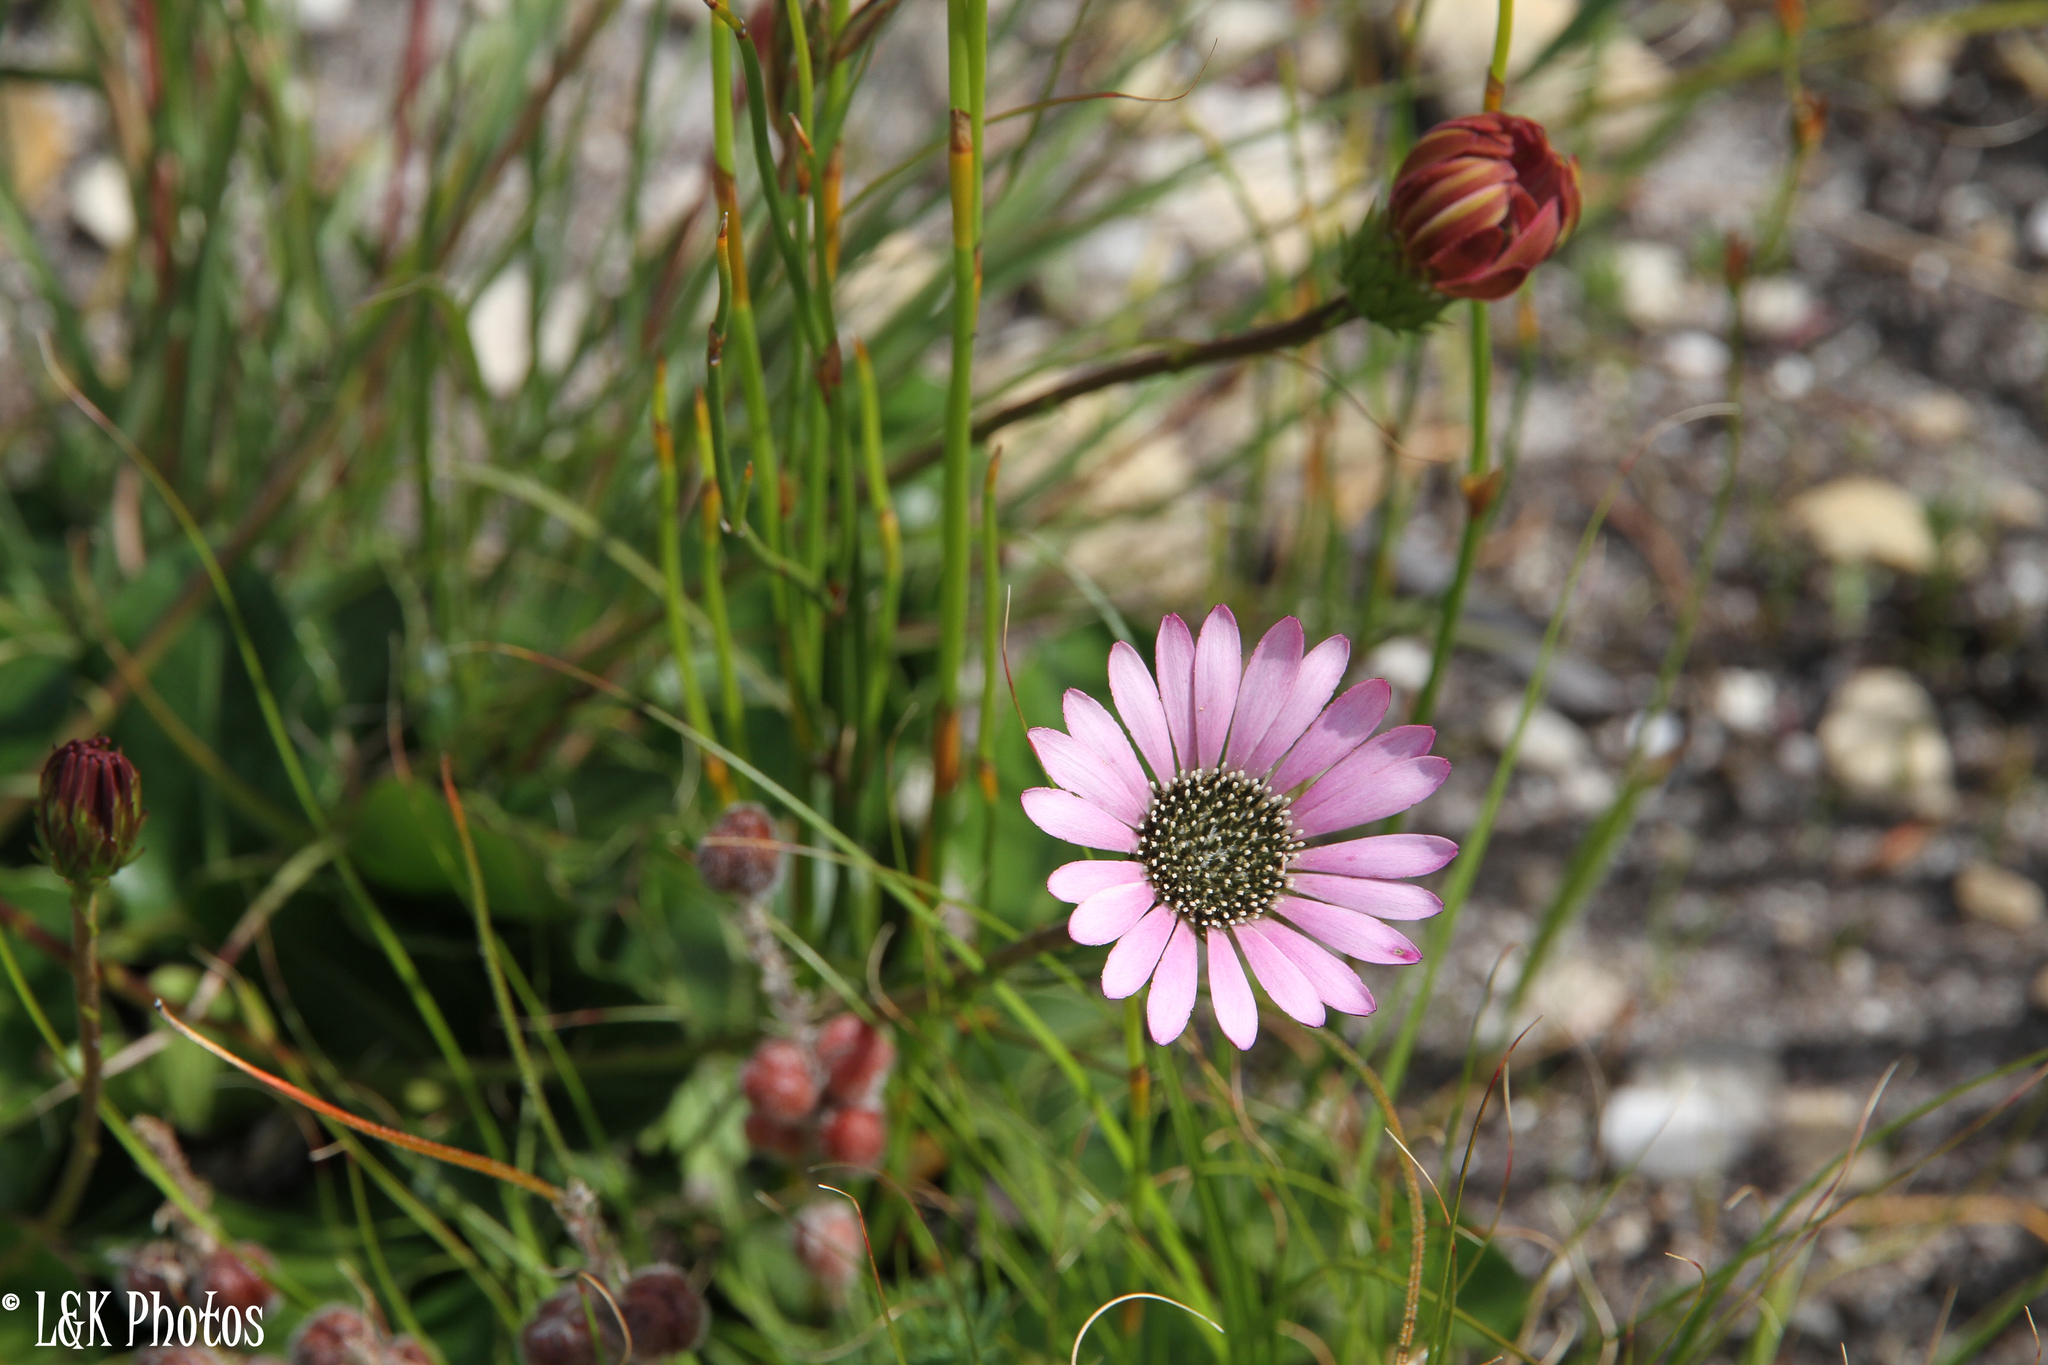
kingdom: Plantae
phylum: Tracheophyta
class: Magnoliopsida
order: Asterales
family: Asteraceae
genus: Gerbera
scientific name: Gerbera crocea
